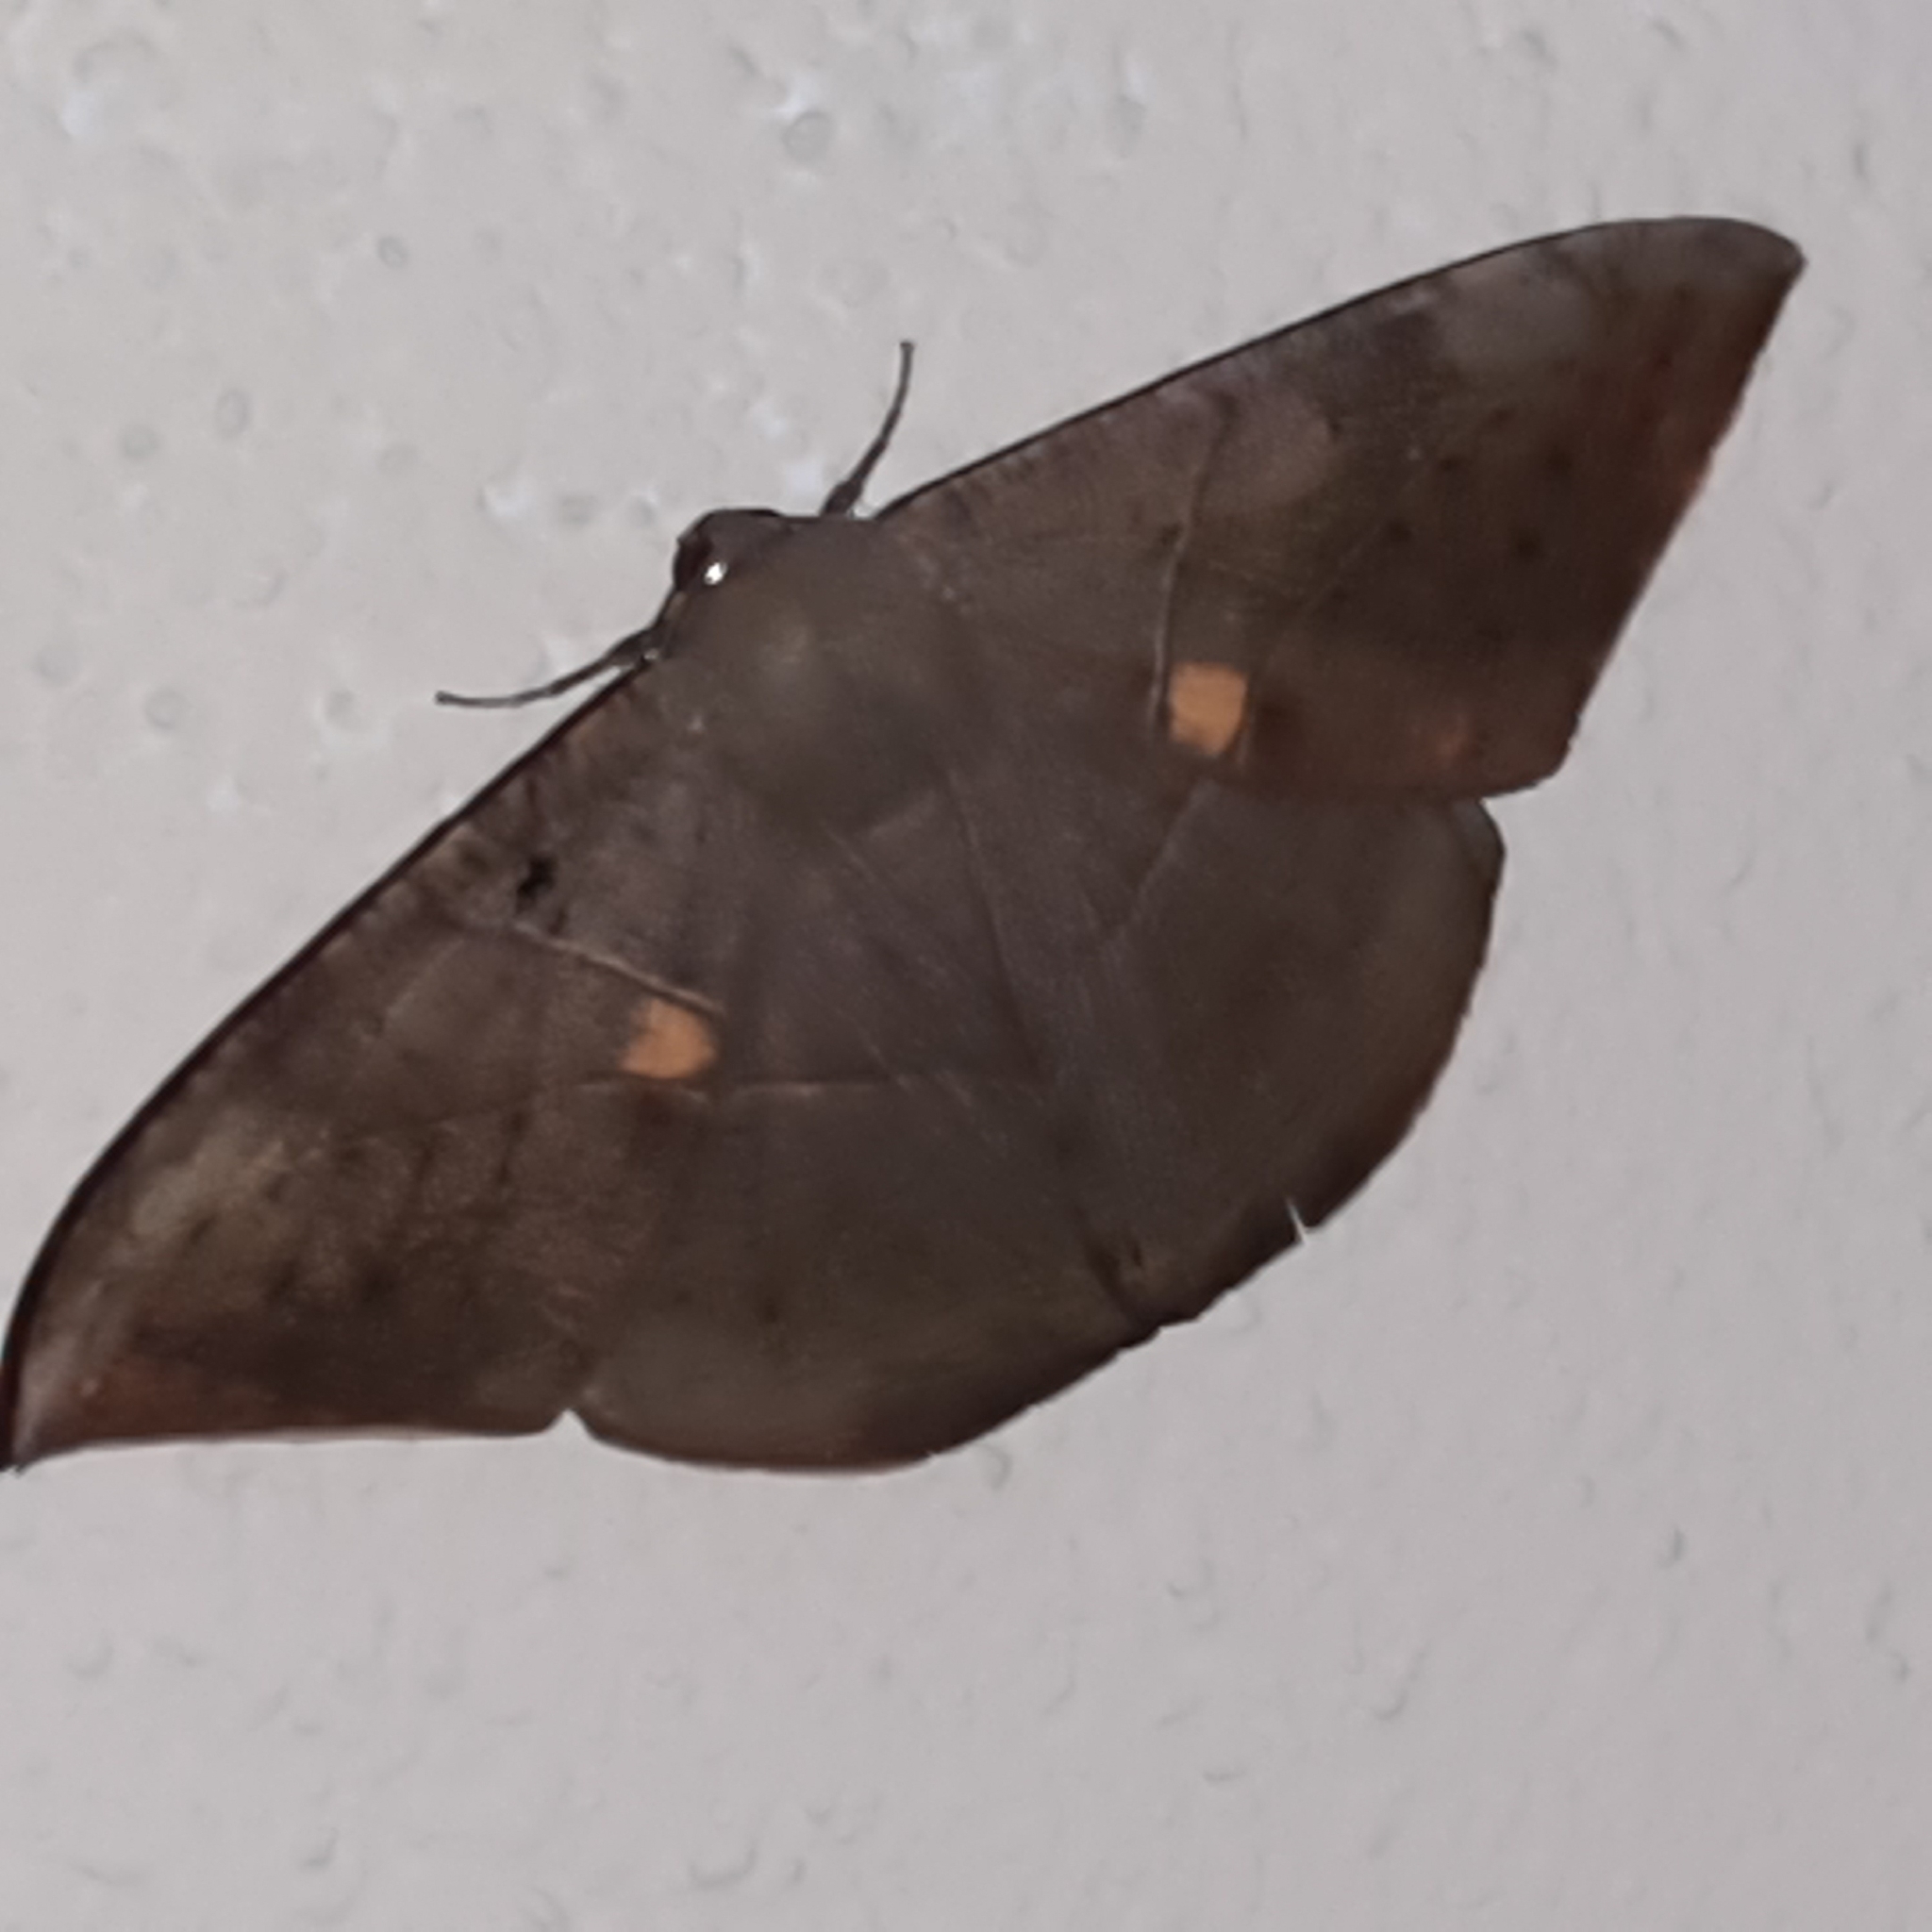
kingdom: Animalia
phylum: Arthropoda
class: Insecta
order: Lepidoptera
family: Geometridae
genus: Oxydia
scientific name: Oxydia trychiata
